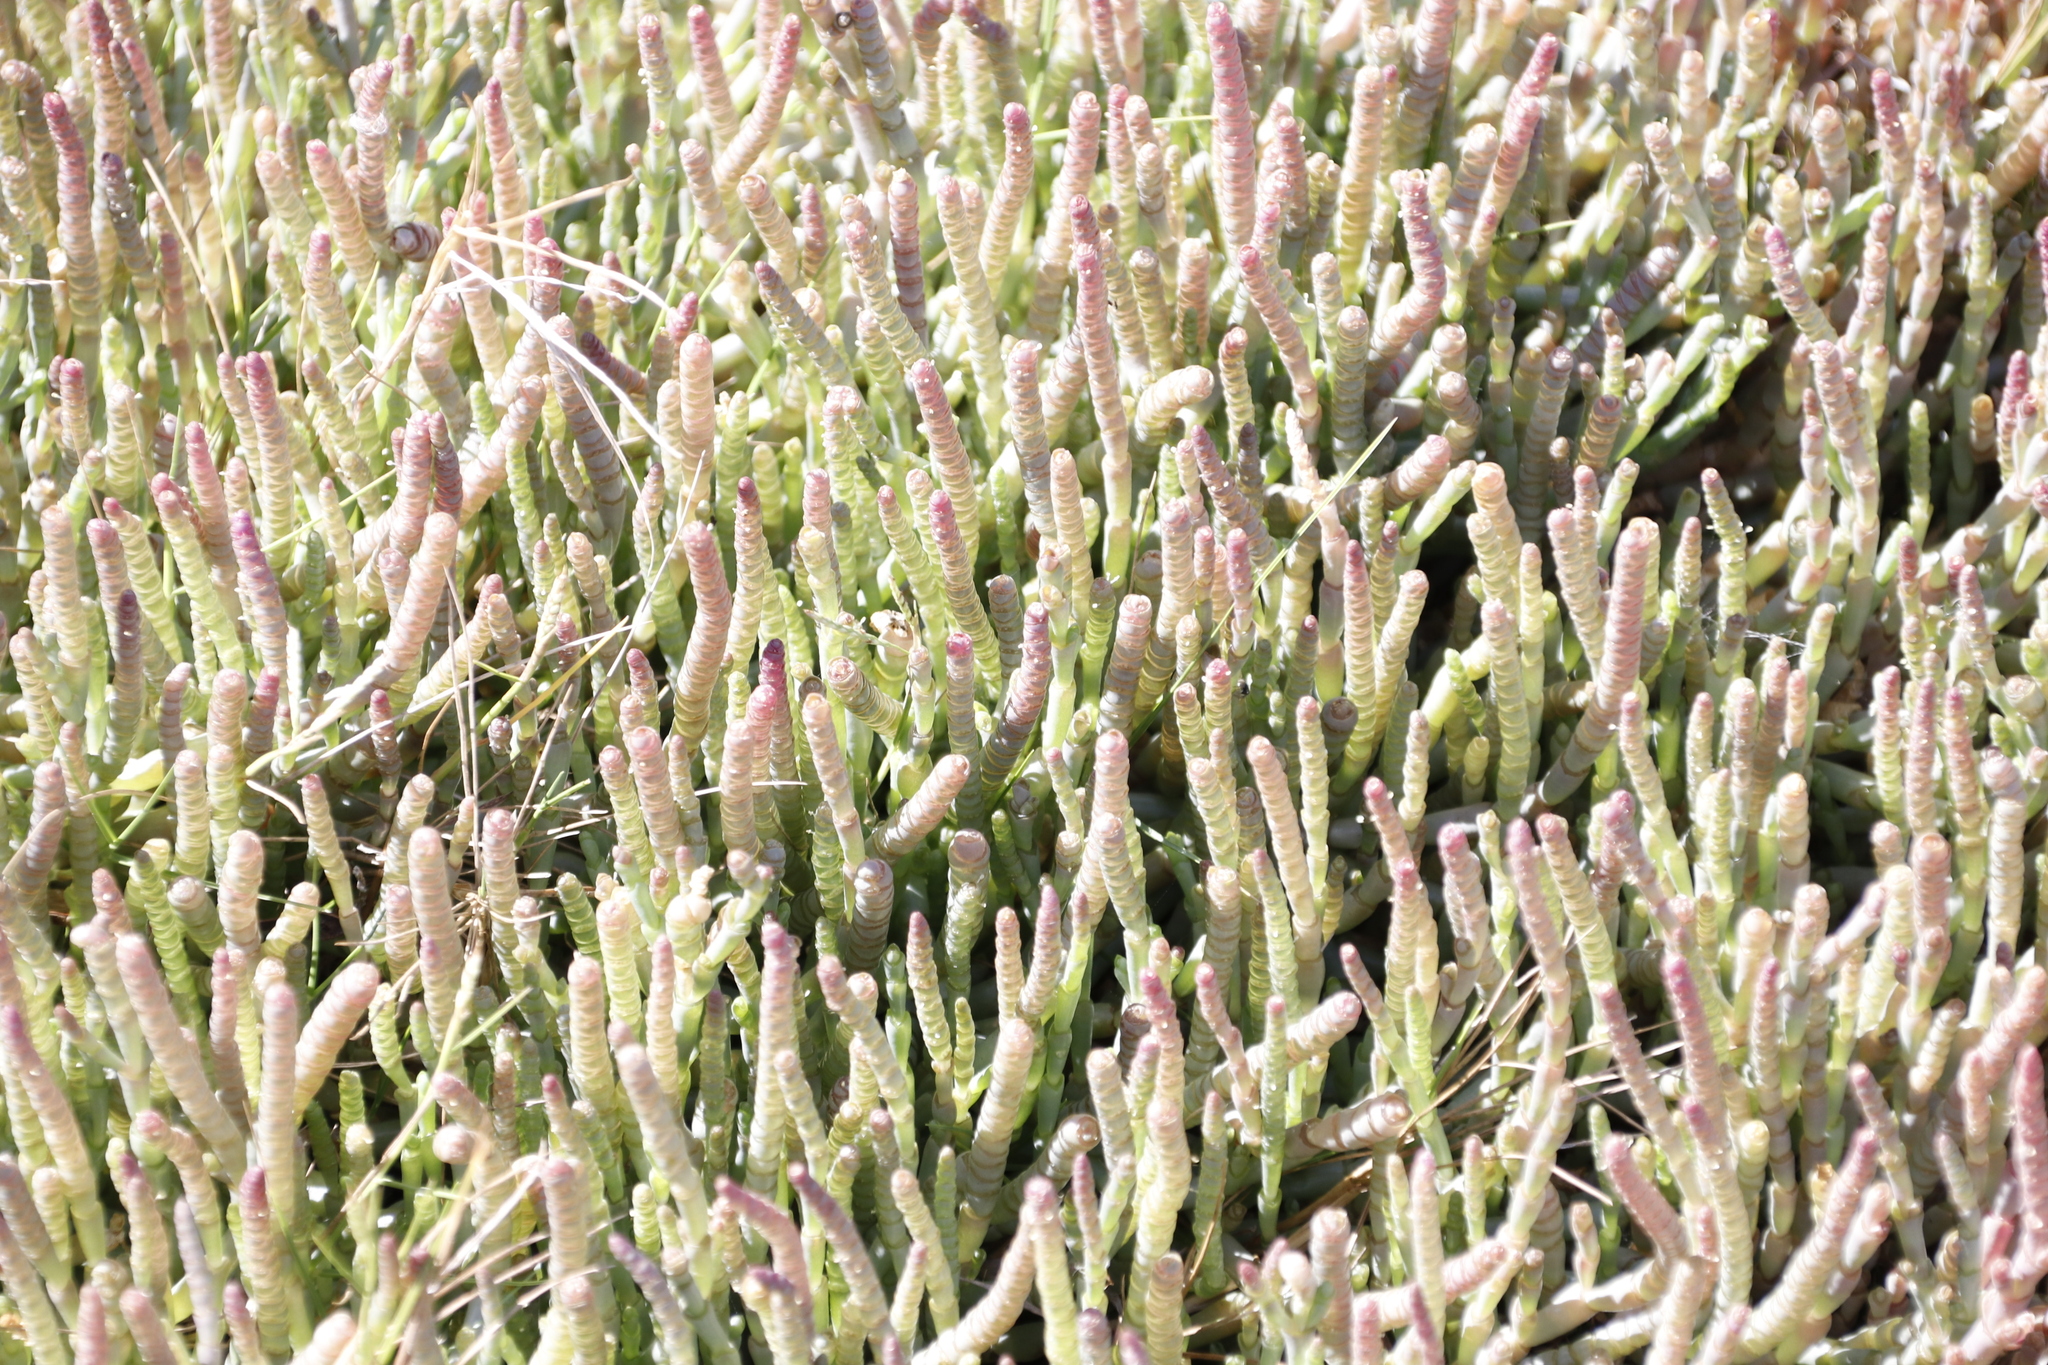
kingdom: Plantae
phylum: Tracheophyta
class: Magnoliopsida
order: Caryophyllales
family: Amaranthaceae
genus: Salicornia
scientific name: Salicornia natalensis
